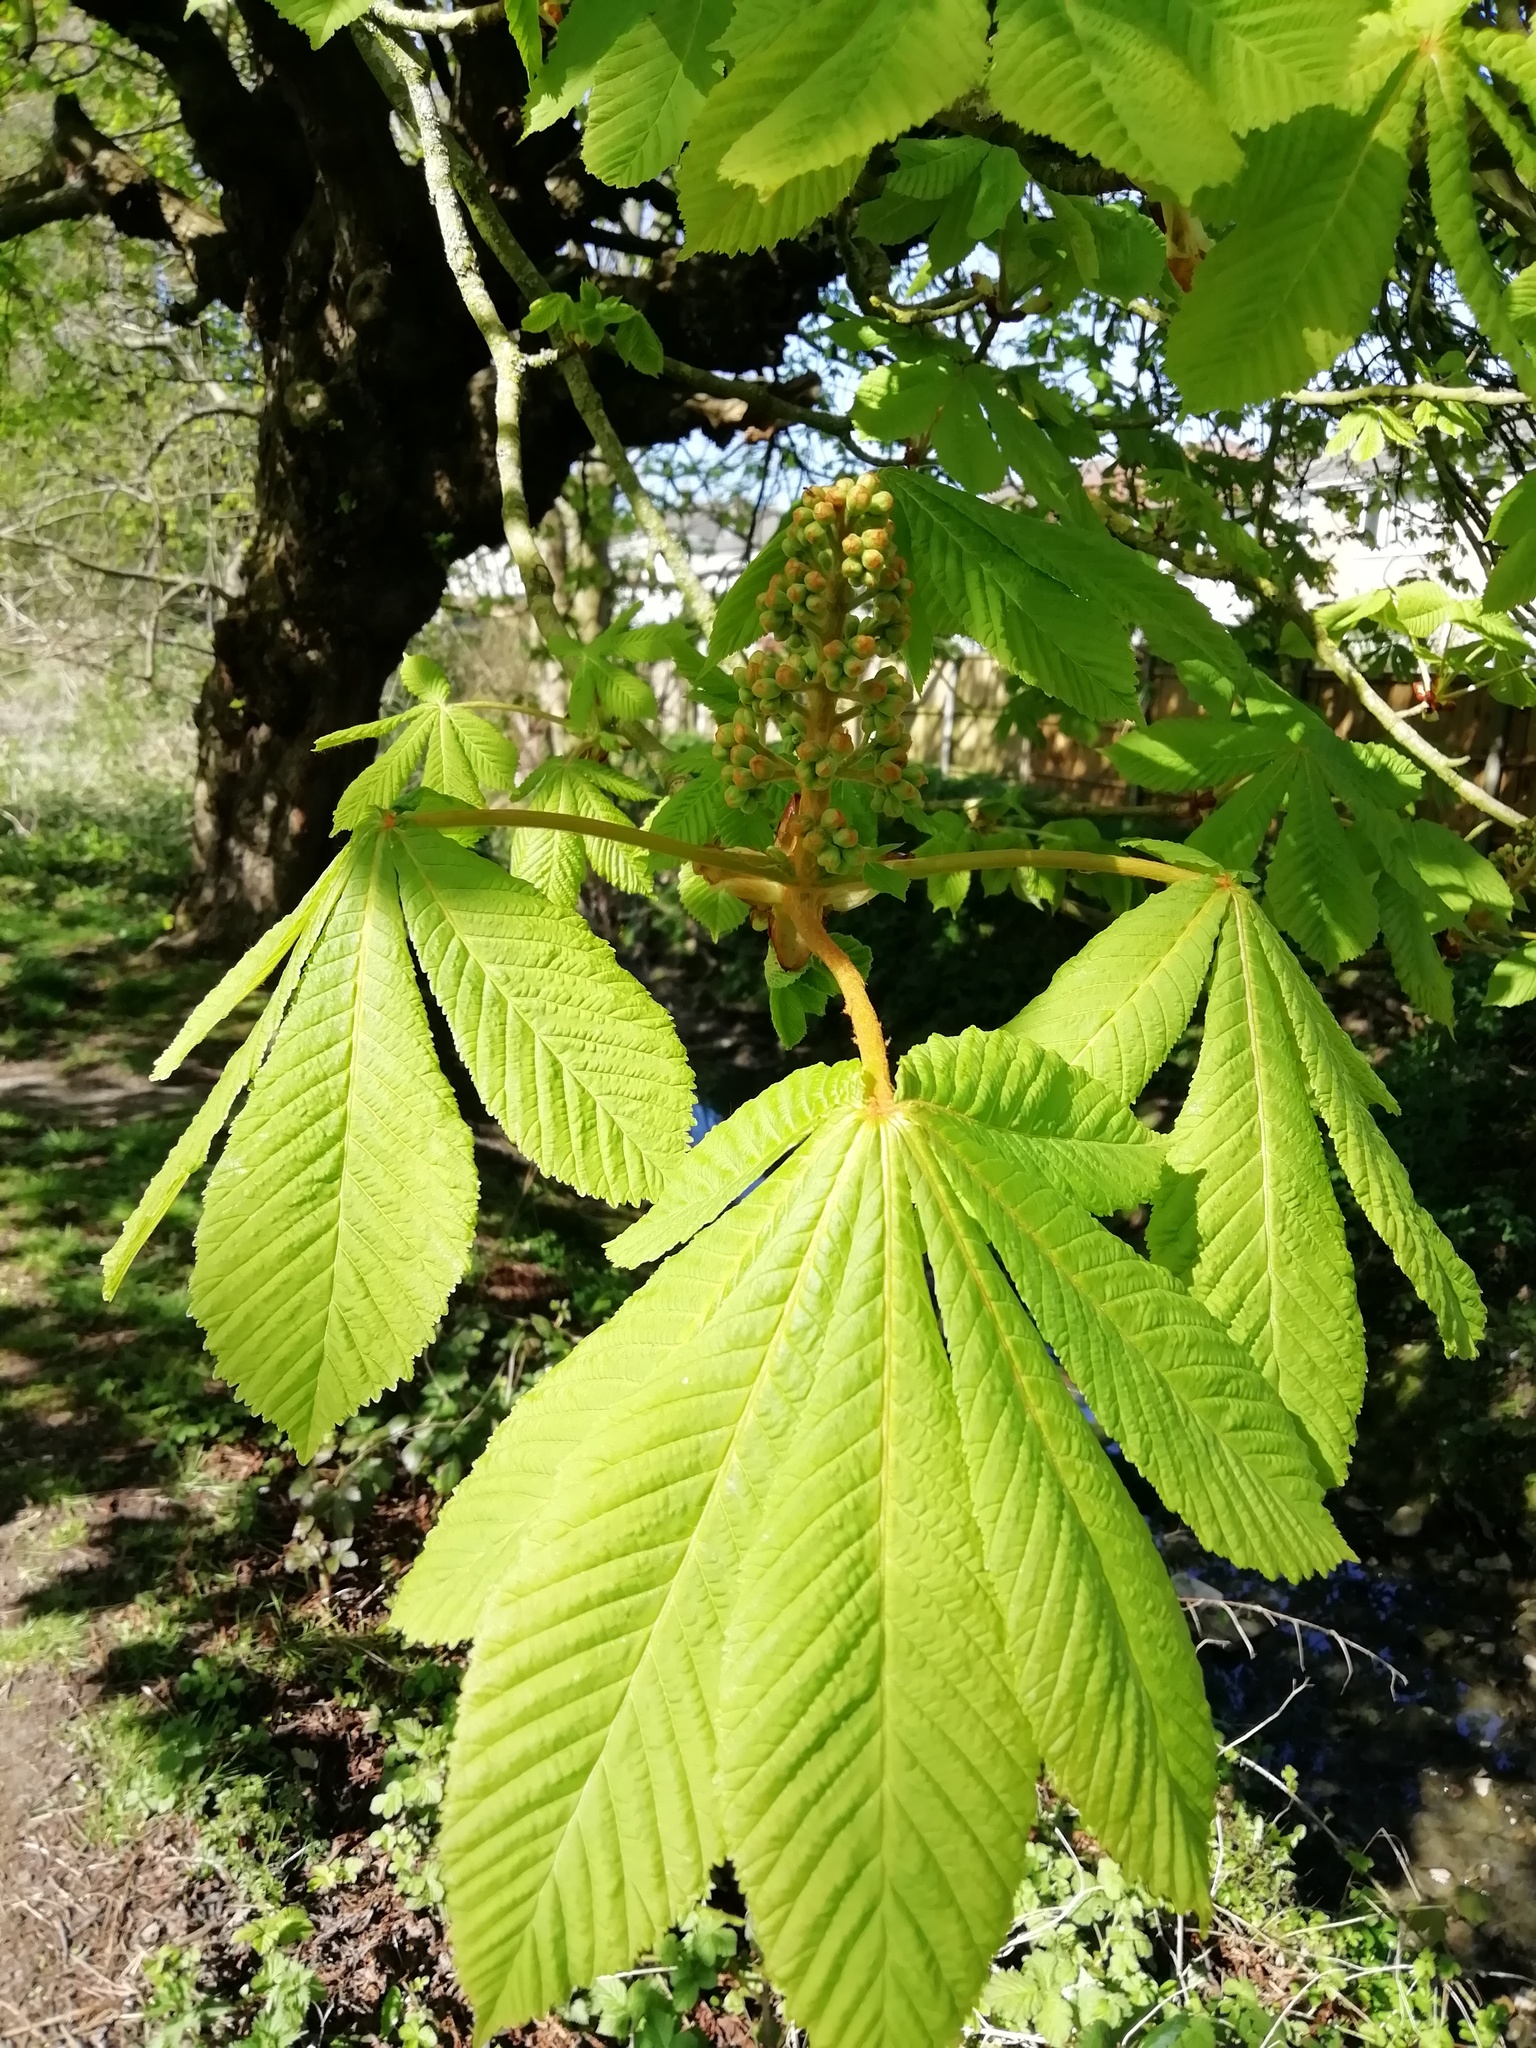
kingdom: Plantae
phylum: Tracheophyta
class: Magnoliopsida
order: Sapindales
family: Sapindaceae
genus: Aesculus
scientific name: Aesculus hippocastanum
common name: Horse-chestnut
